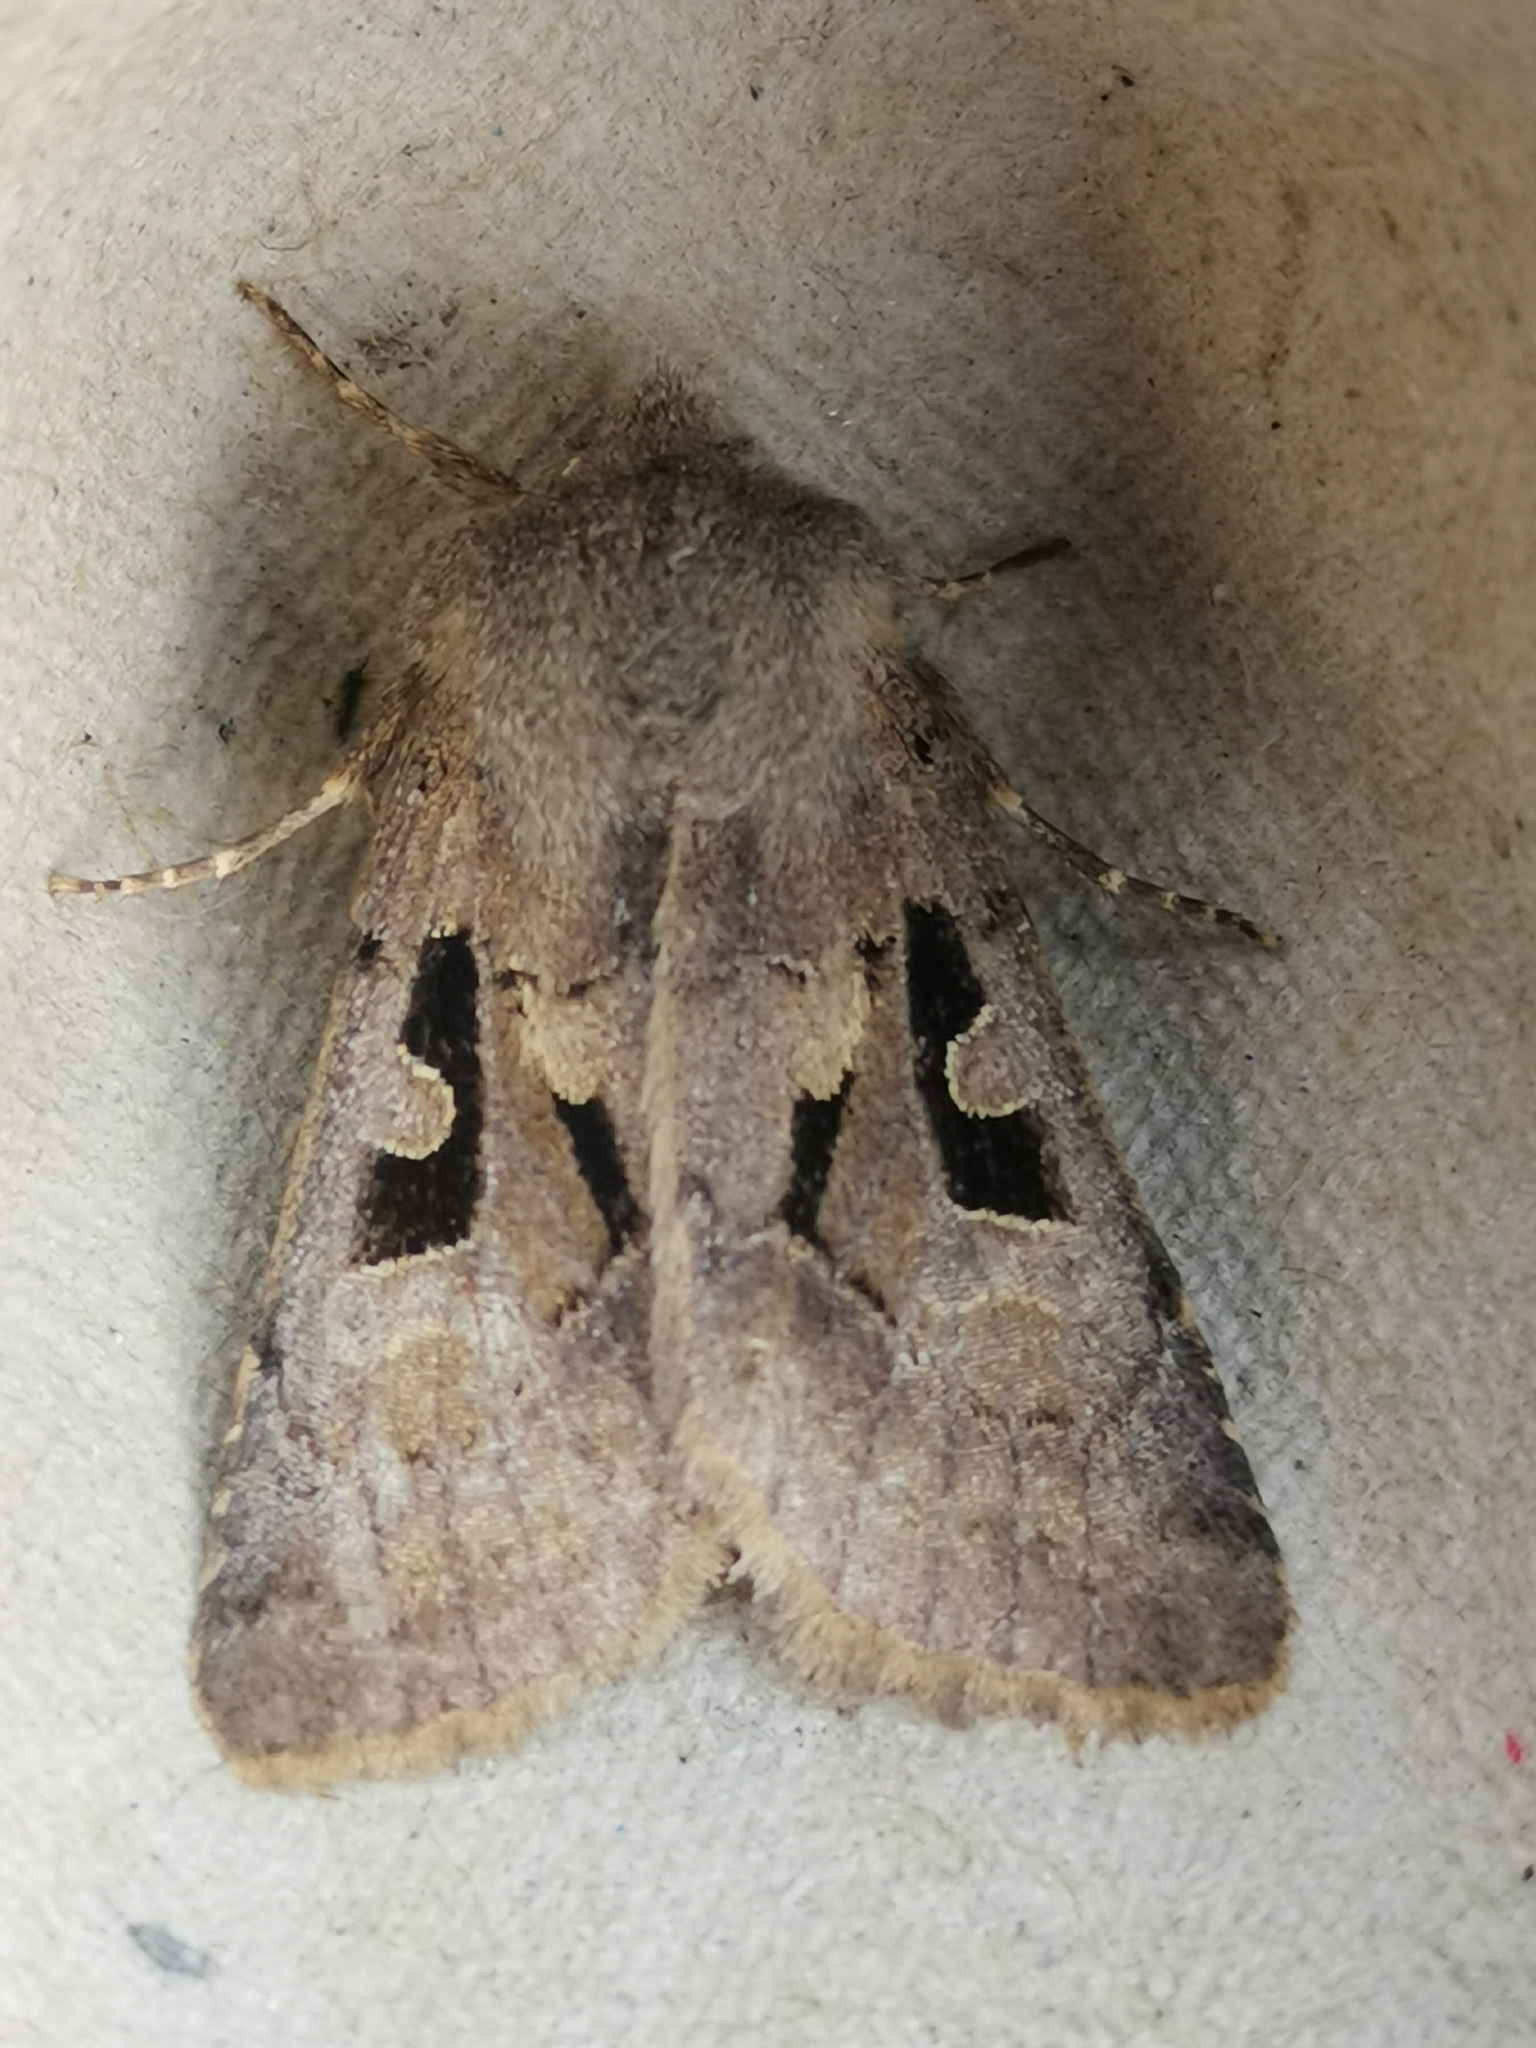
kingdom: Animalia
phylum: Arthropoda
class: Insecta
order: Lepidoptera
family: Noctuidae
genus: Orthosia
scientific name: Orthosia gothica
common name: Hebrew character
